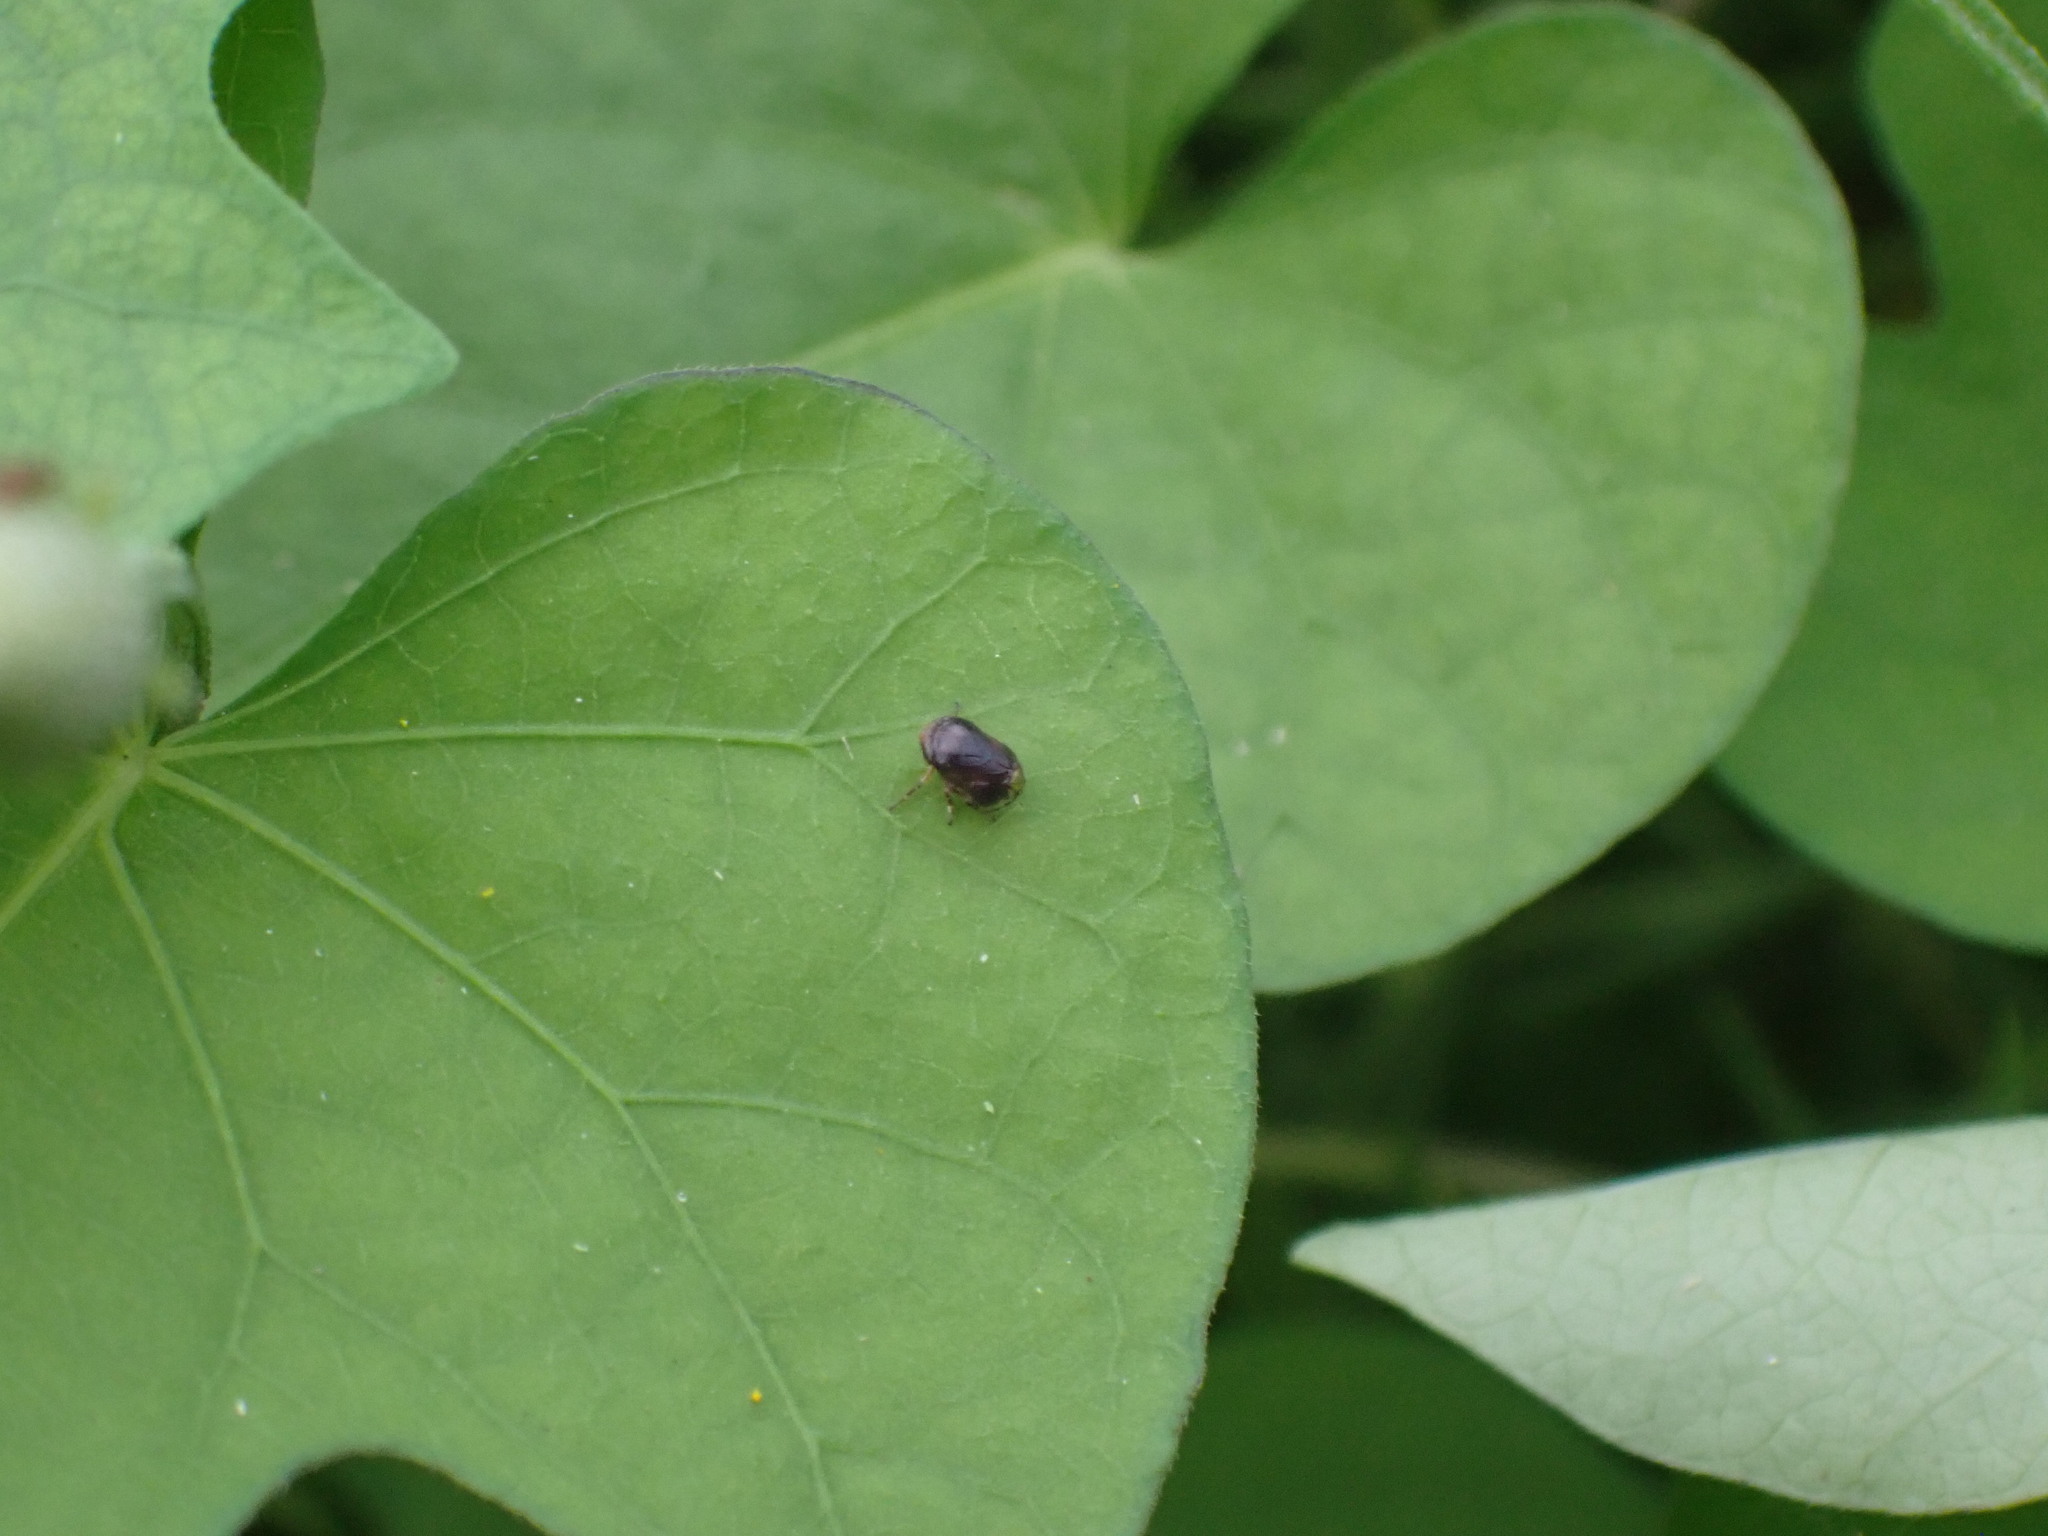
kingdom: Animalia
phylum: Arthropoda
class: Insecta
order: Hemiptera
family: Clastopteridae
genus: Clastoptera
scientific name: Clastoptera xanthocephala
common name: Sunflower spittlebug
